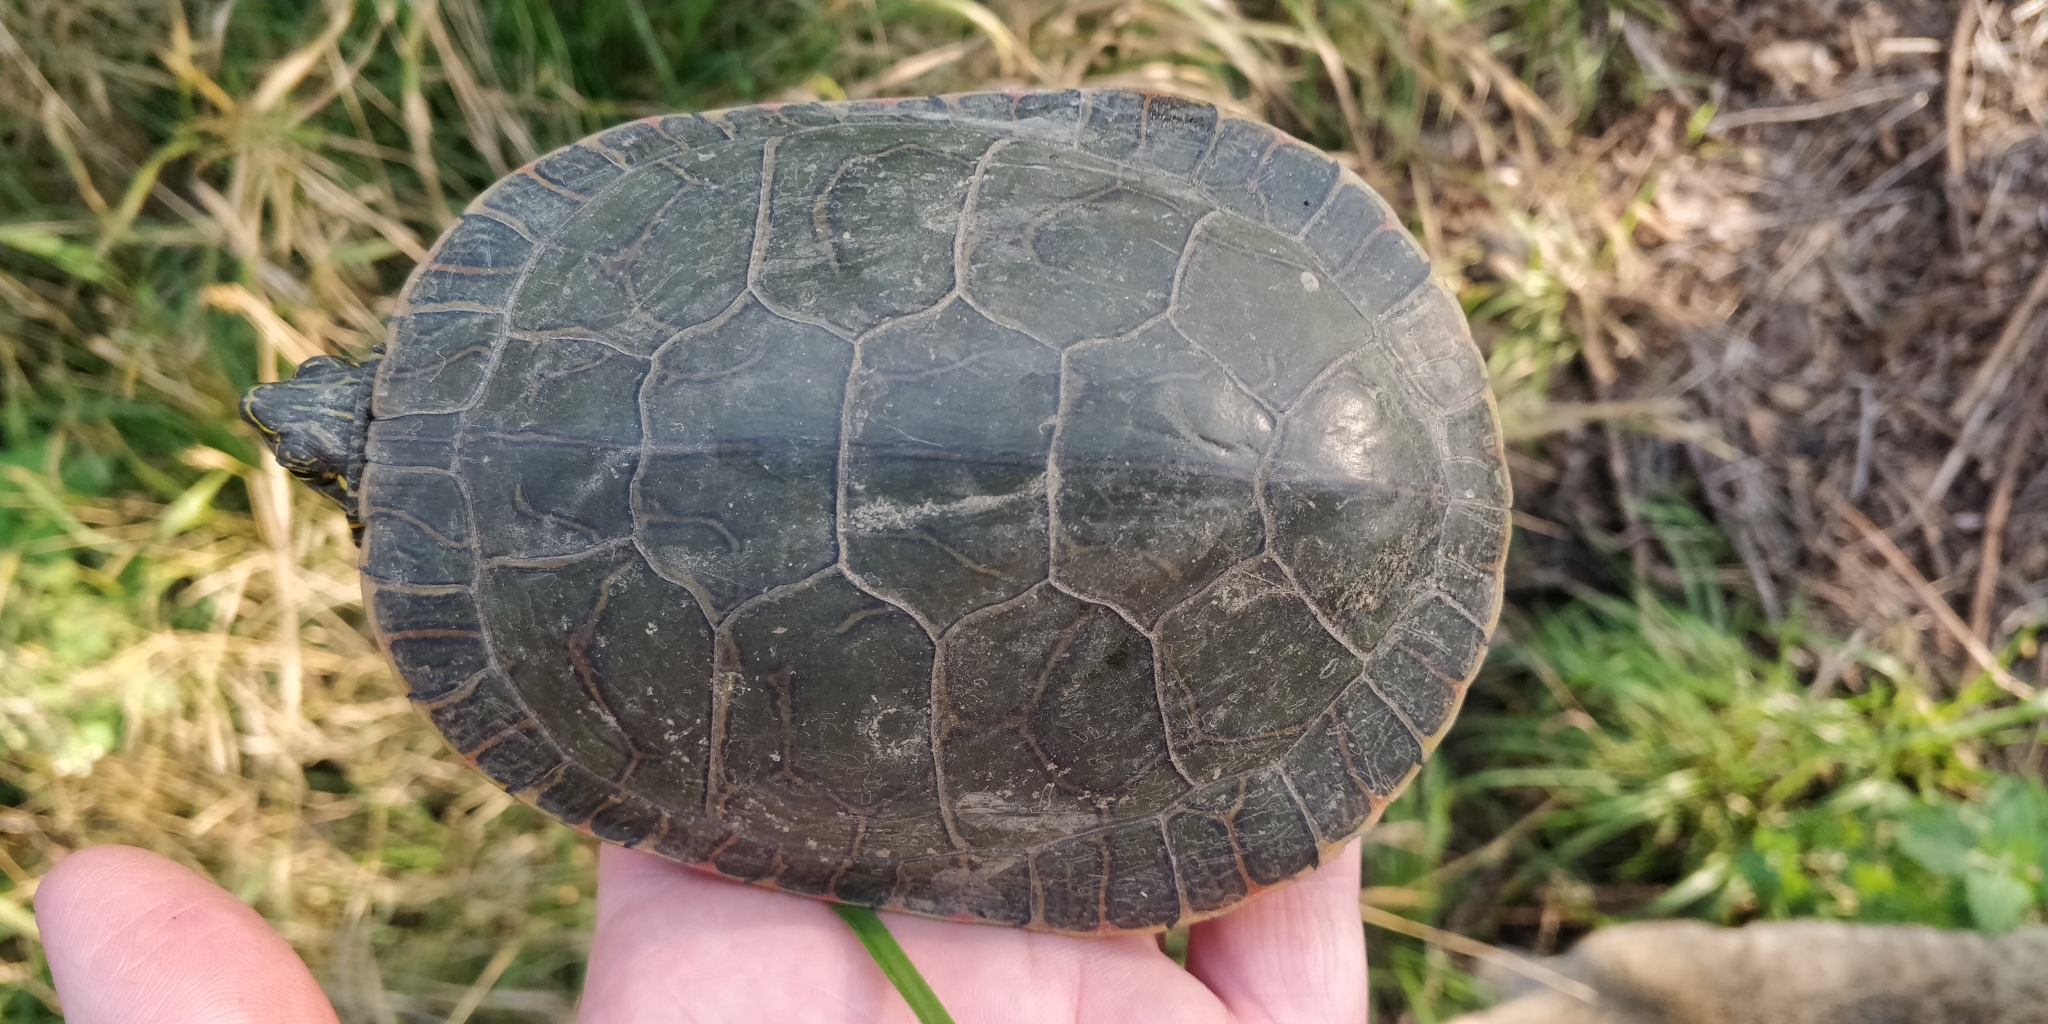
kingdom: Animalia
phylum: Chordata
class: Testudines
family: Emydidae
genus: Chrysemys
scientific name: Chrysemys picta
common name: Painted turtle
